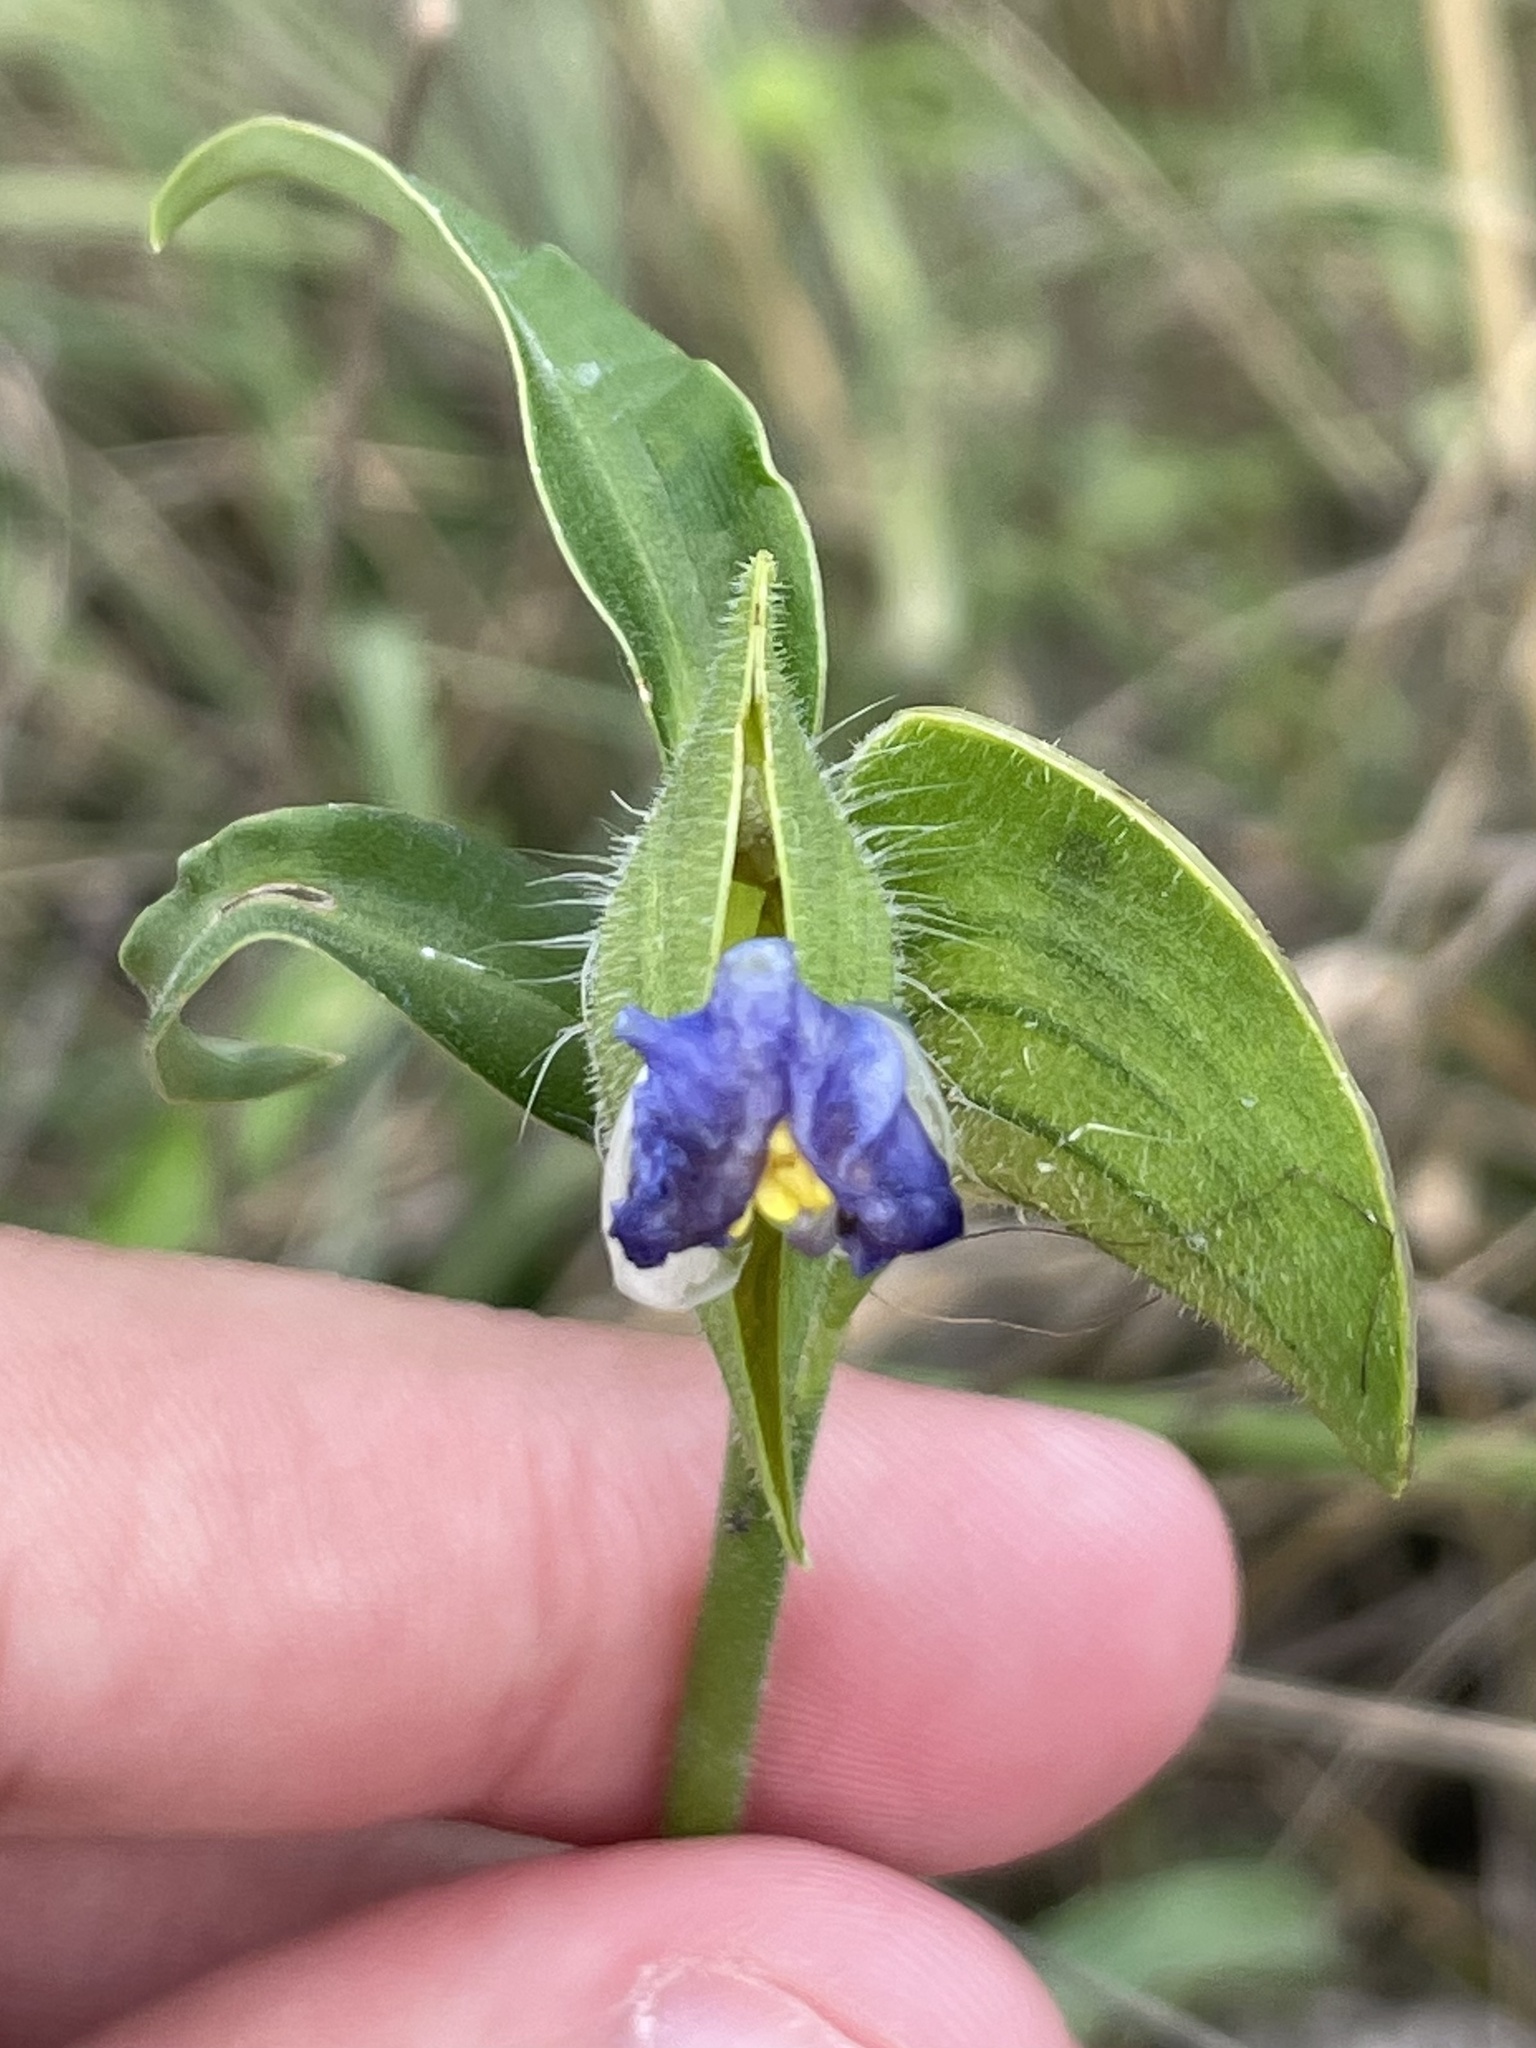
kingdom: Plantae
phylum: Tracheophyta
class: Liliopsida
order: Commelinales
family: Commelinaceae
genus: Commelina
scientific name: Commelina erecta
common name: Blousel blommetjie
